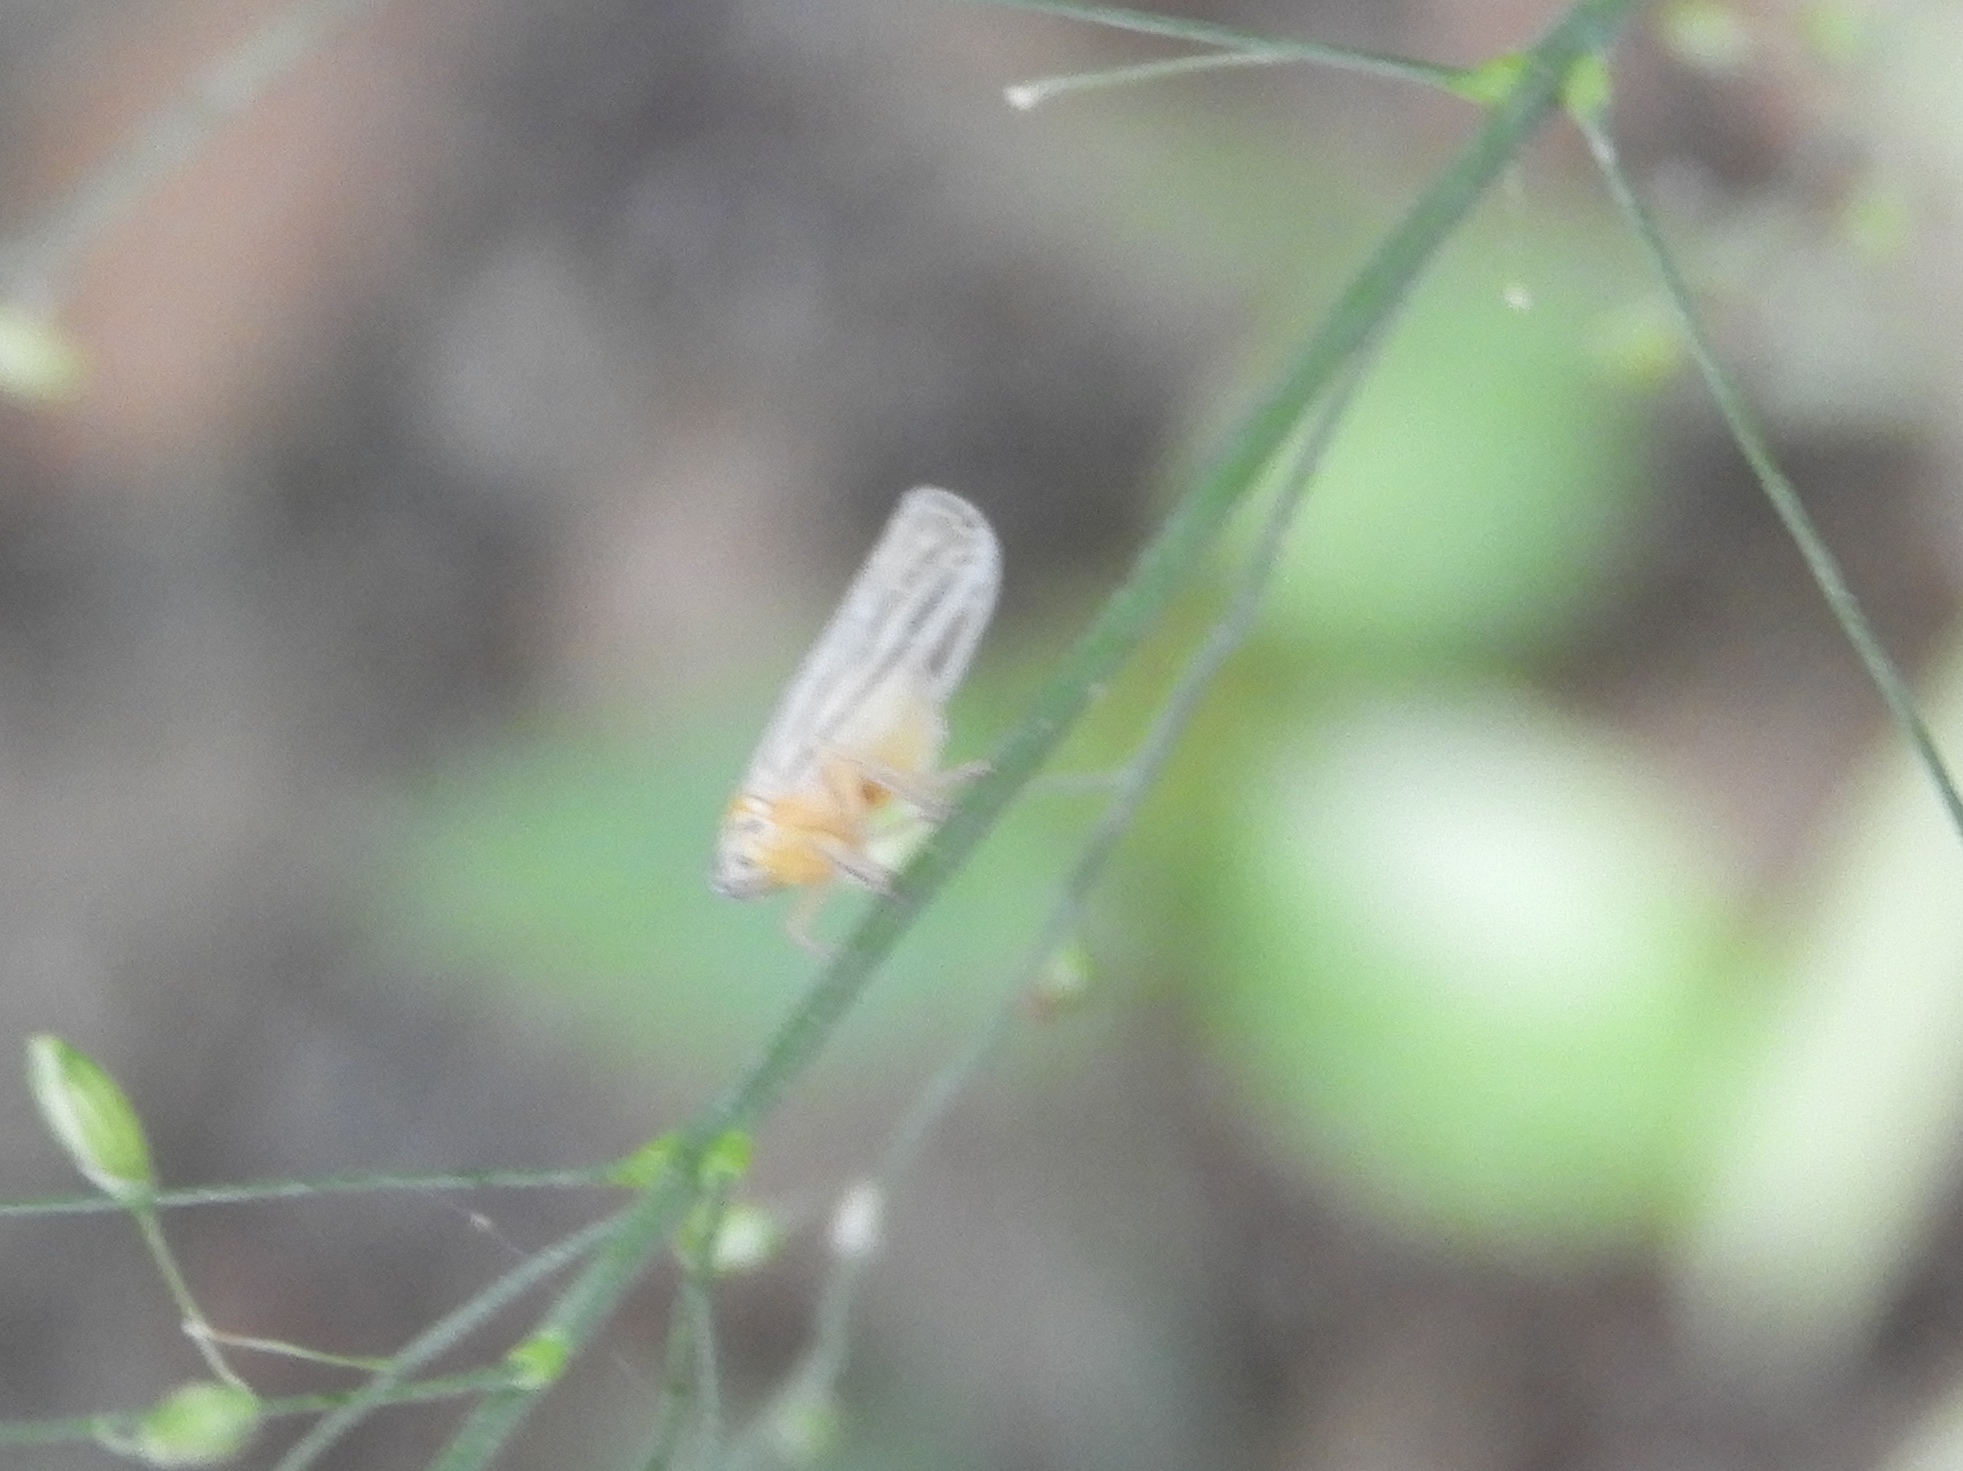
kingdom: Animalia
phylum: Arthropoda
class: Insecta
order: Hemiptera
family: Derbidae
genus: Persis
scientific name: Persis
